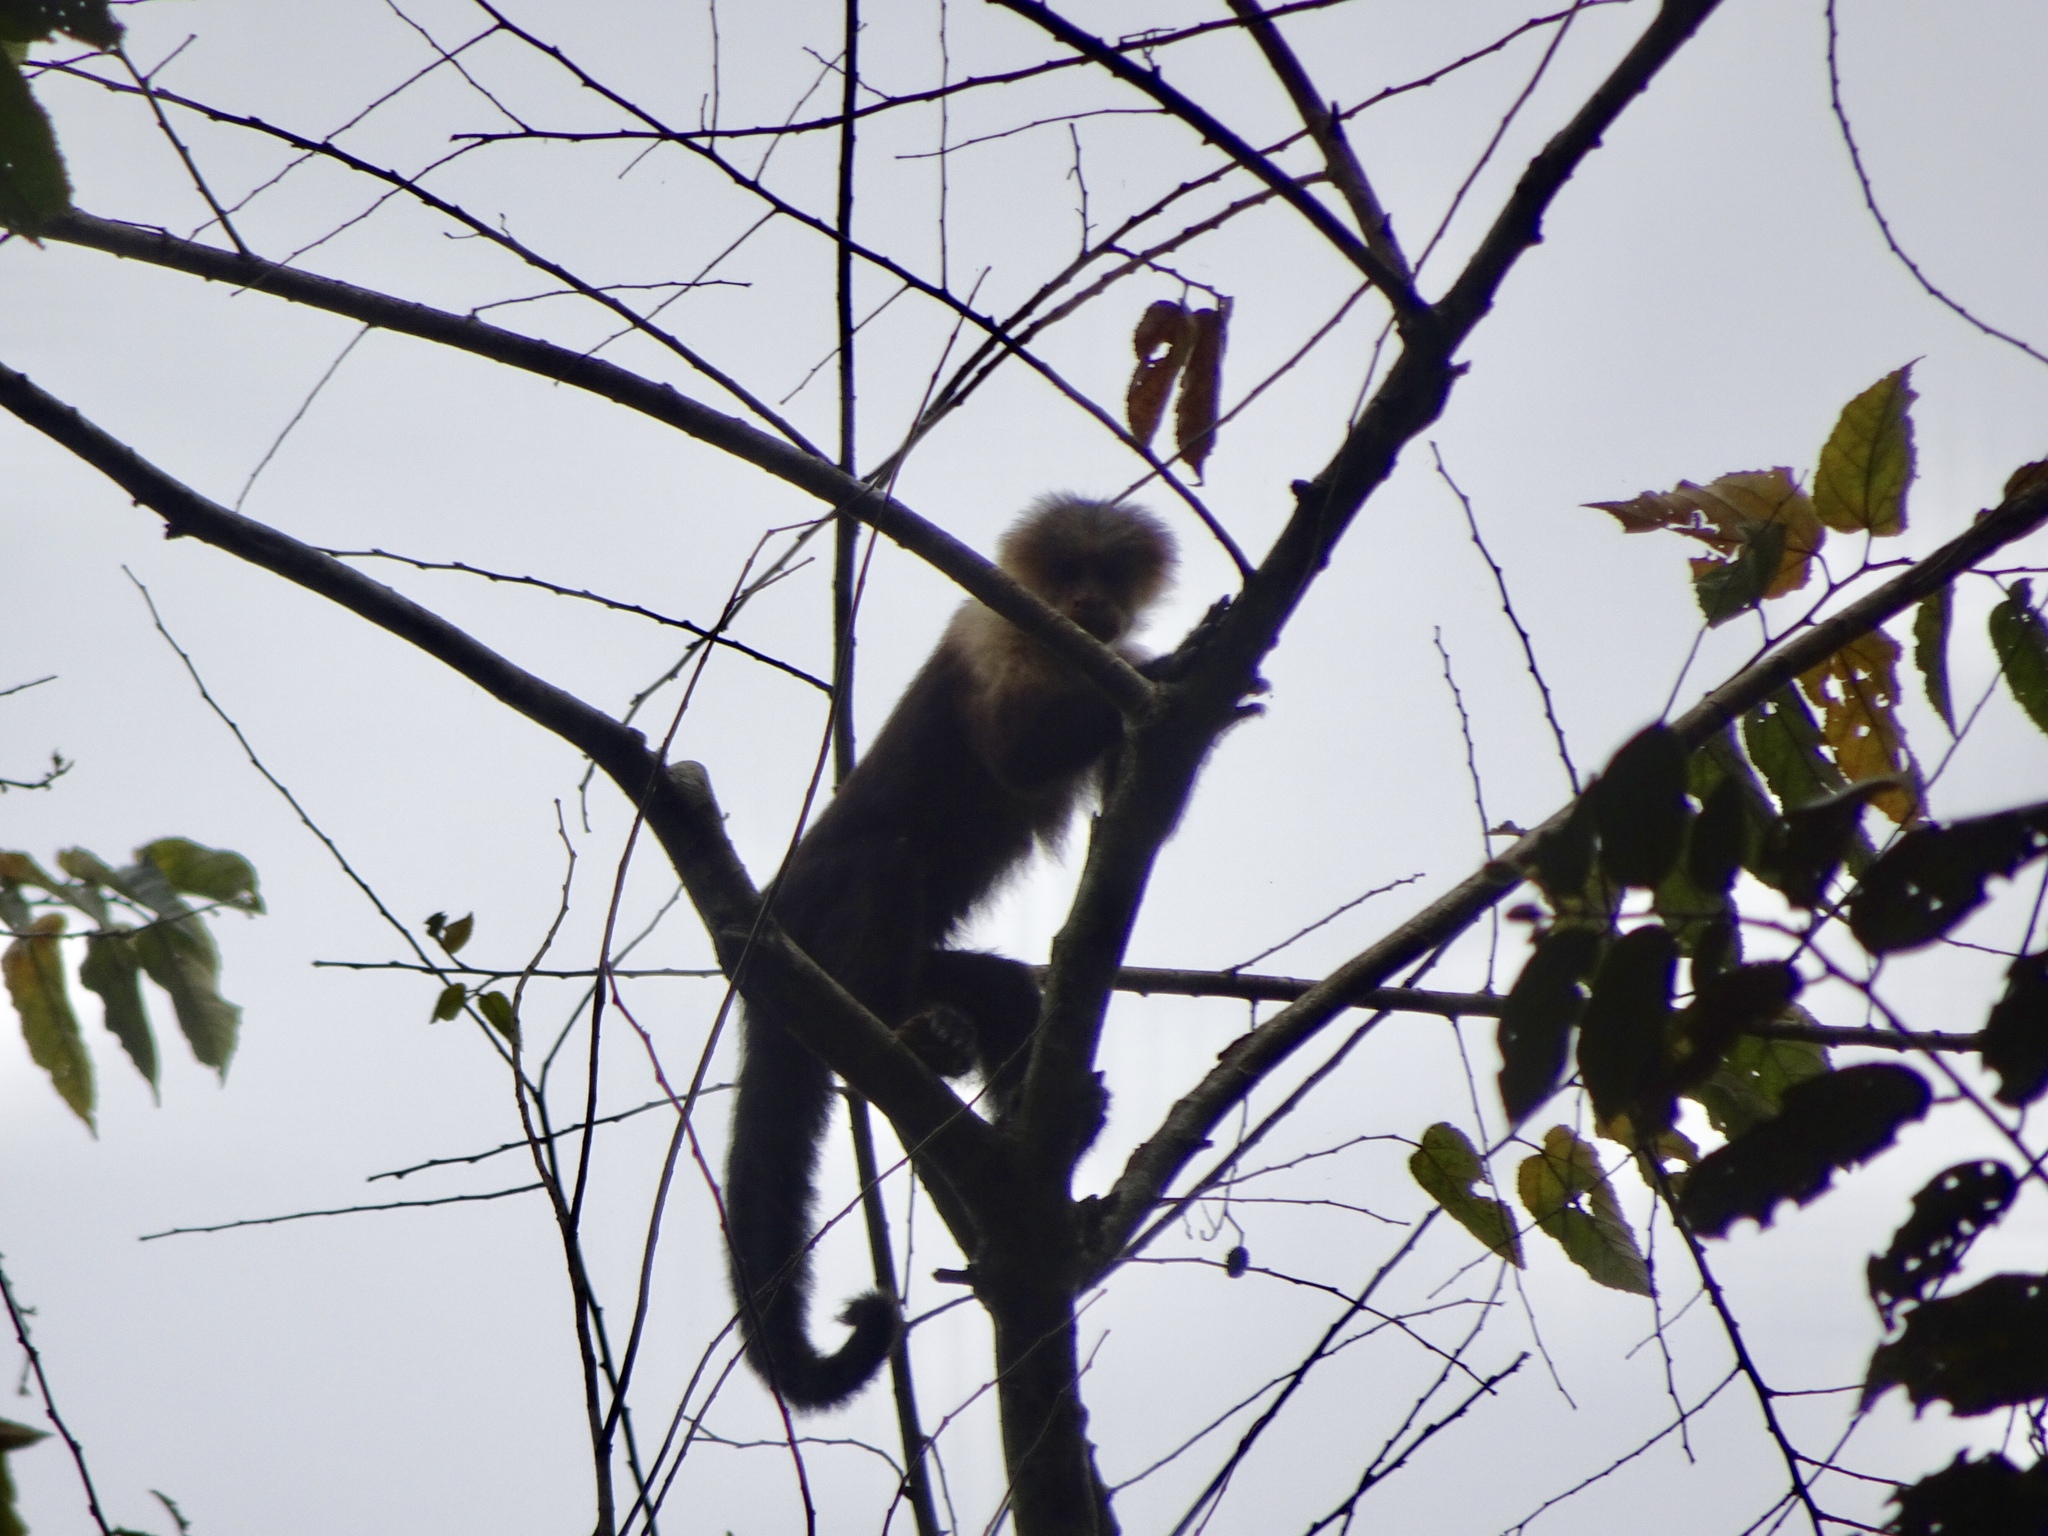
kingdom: Animalia
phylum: Chordata
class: Mammalia
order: Primates
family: Cebidae
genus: Cebus
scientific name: Cebus imitator
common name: Panamanian white-faced capuchin
